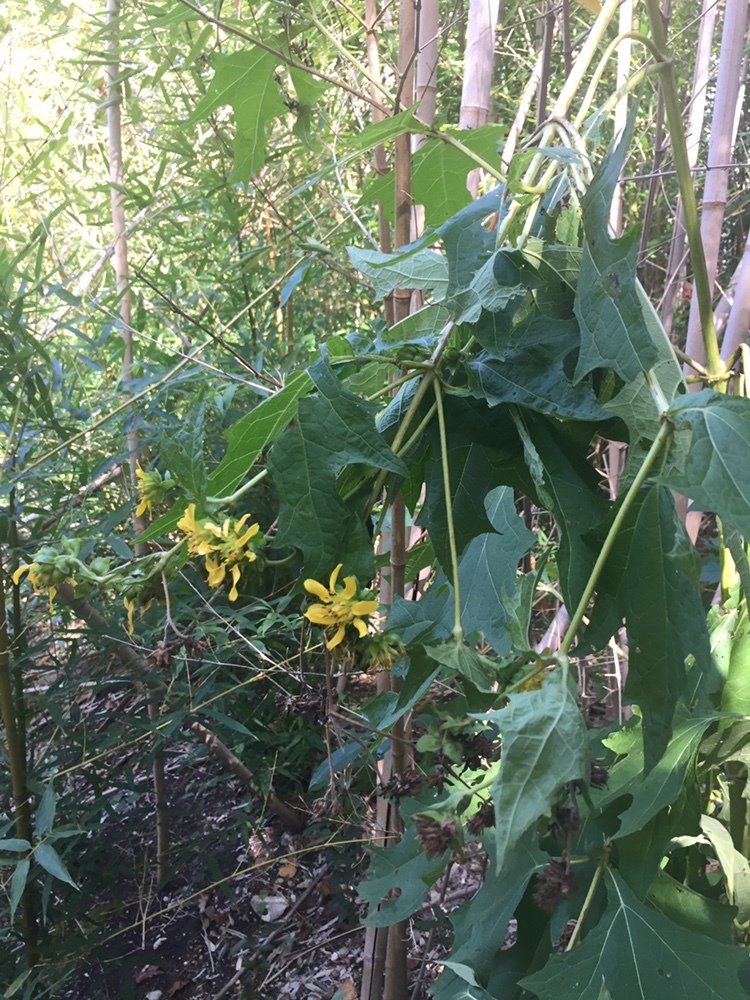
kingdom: Plantae
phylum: Tracheophyta
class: Magnoliopsida
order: Asterales
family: Asteraceae
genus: Smallanthus
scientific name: Smallanthus uvedalia
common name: Bear's-foot
